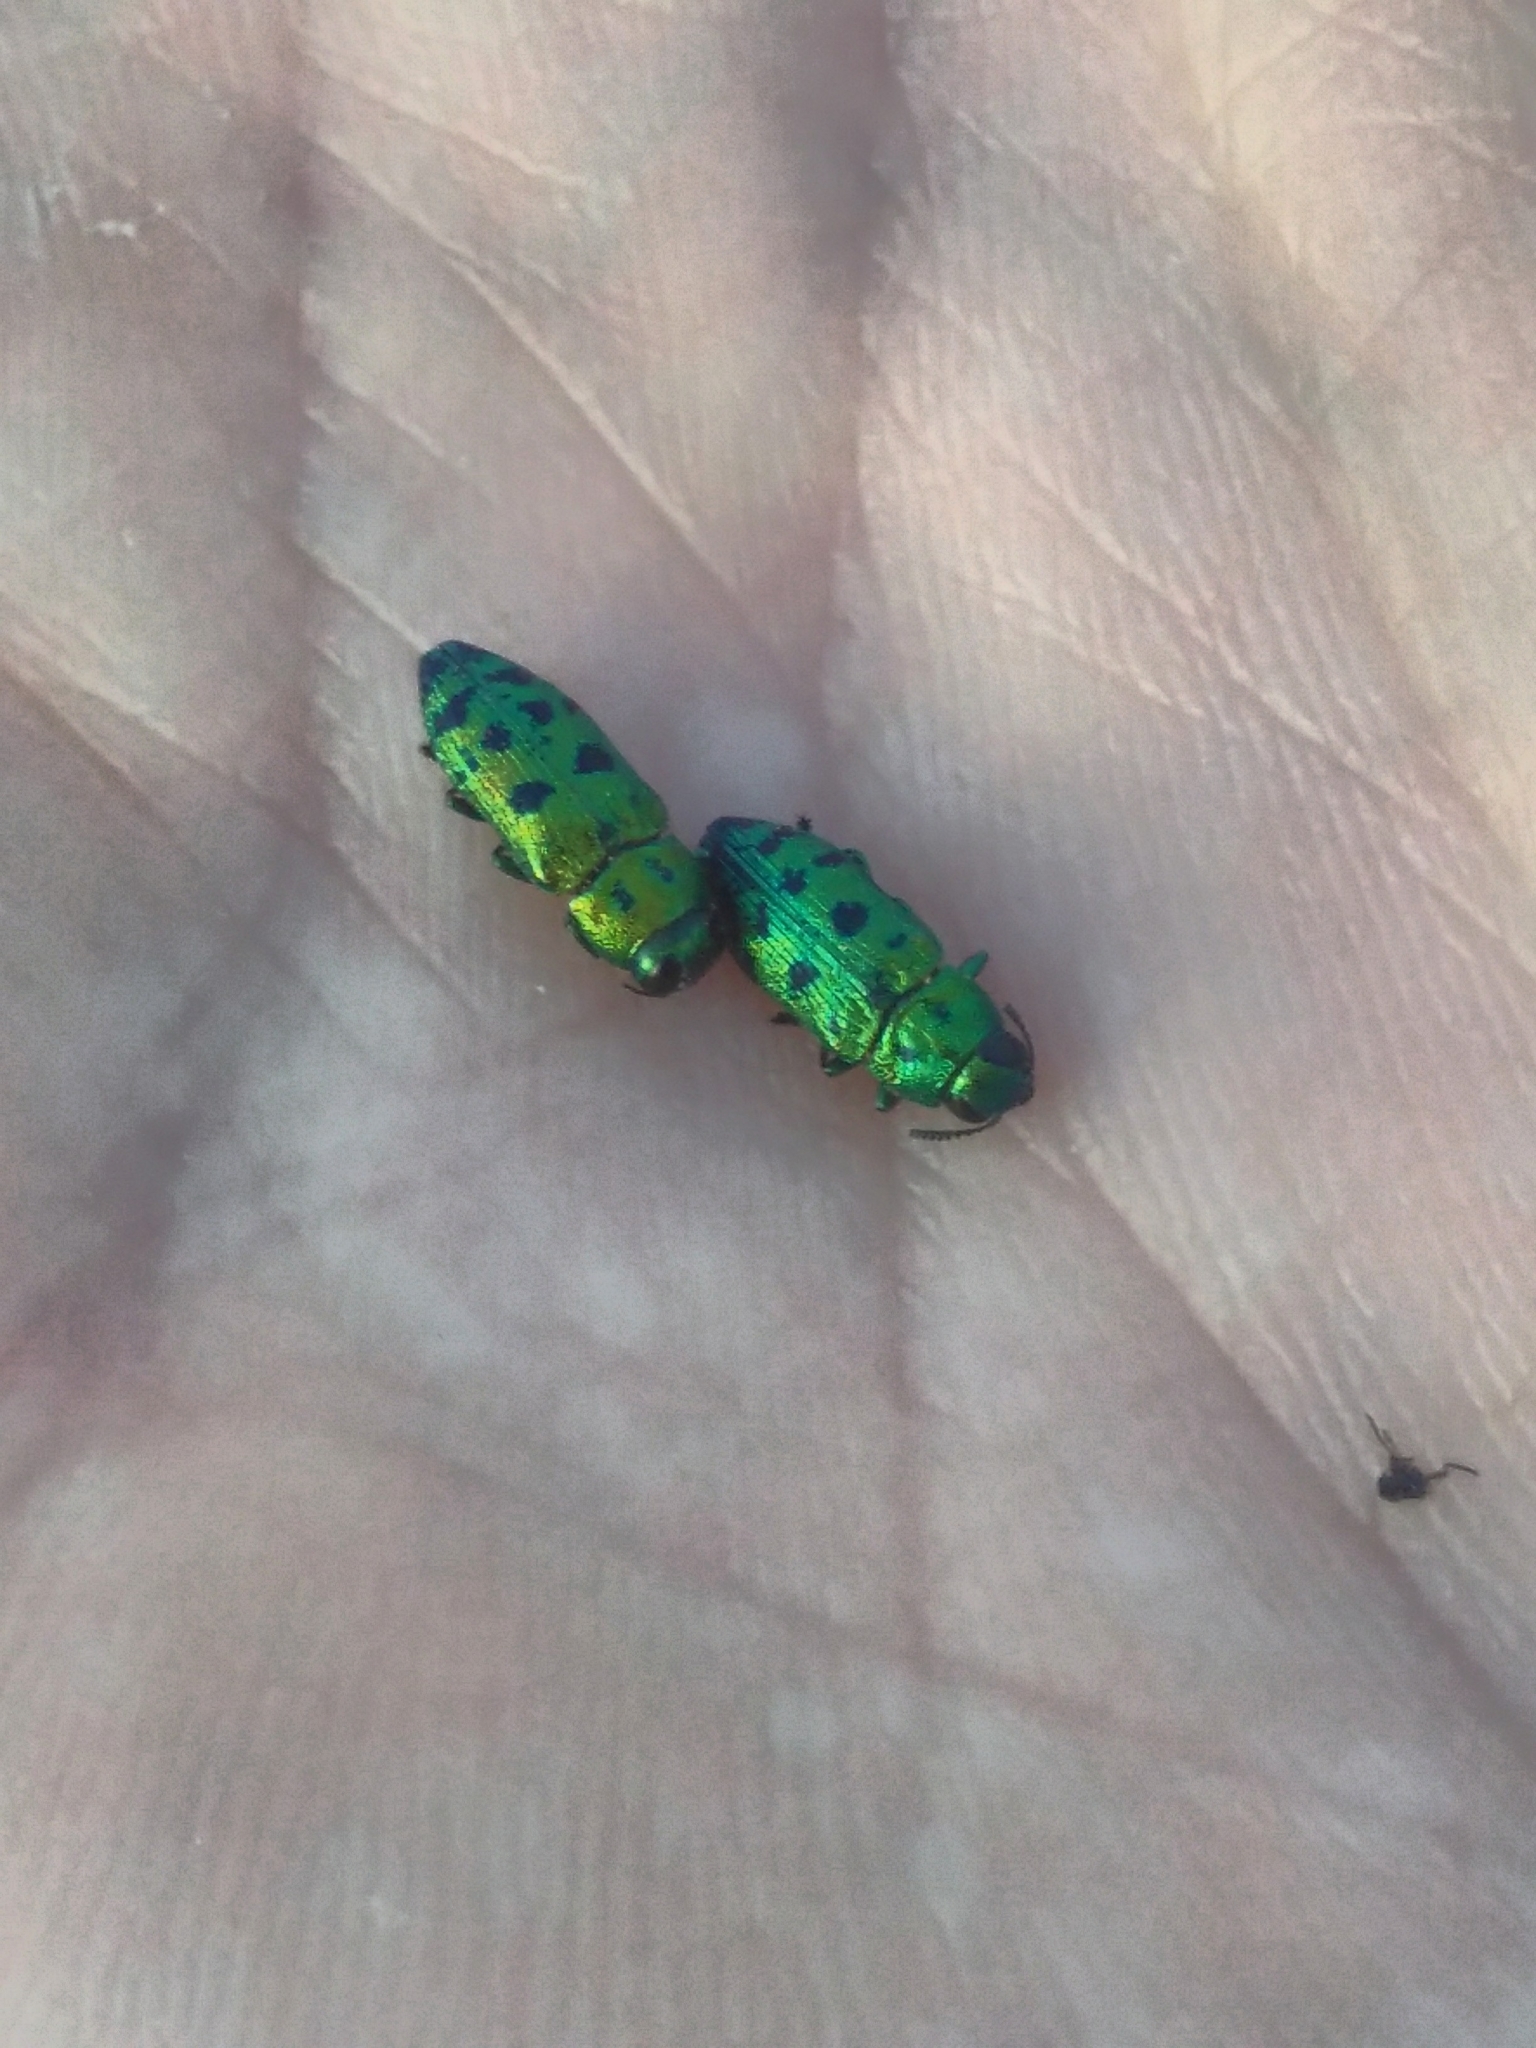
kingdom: Animalia
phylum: Arthropoda
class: Insecta
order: Coleoptera
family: Buprestidae
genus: Lamprodila
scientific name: Lamprodila festiva
